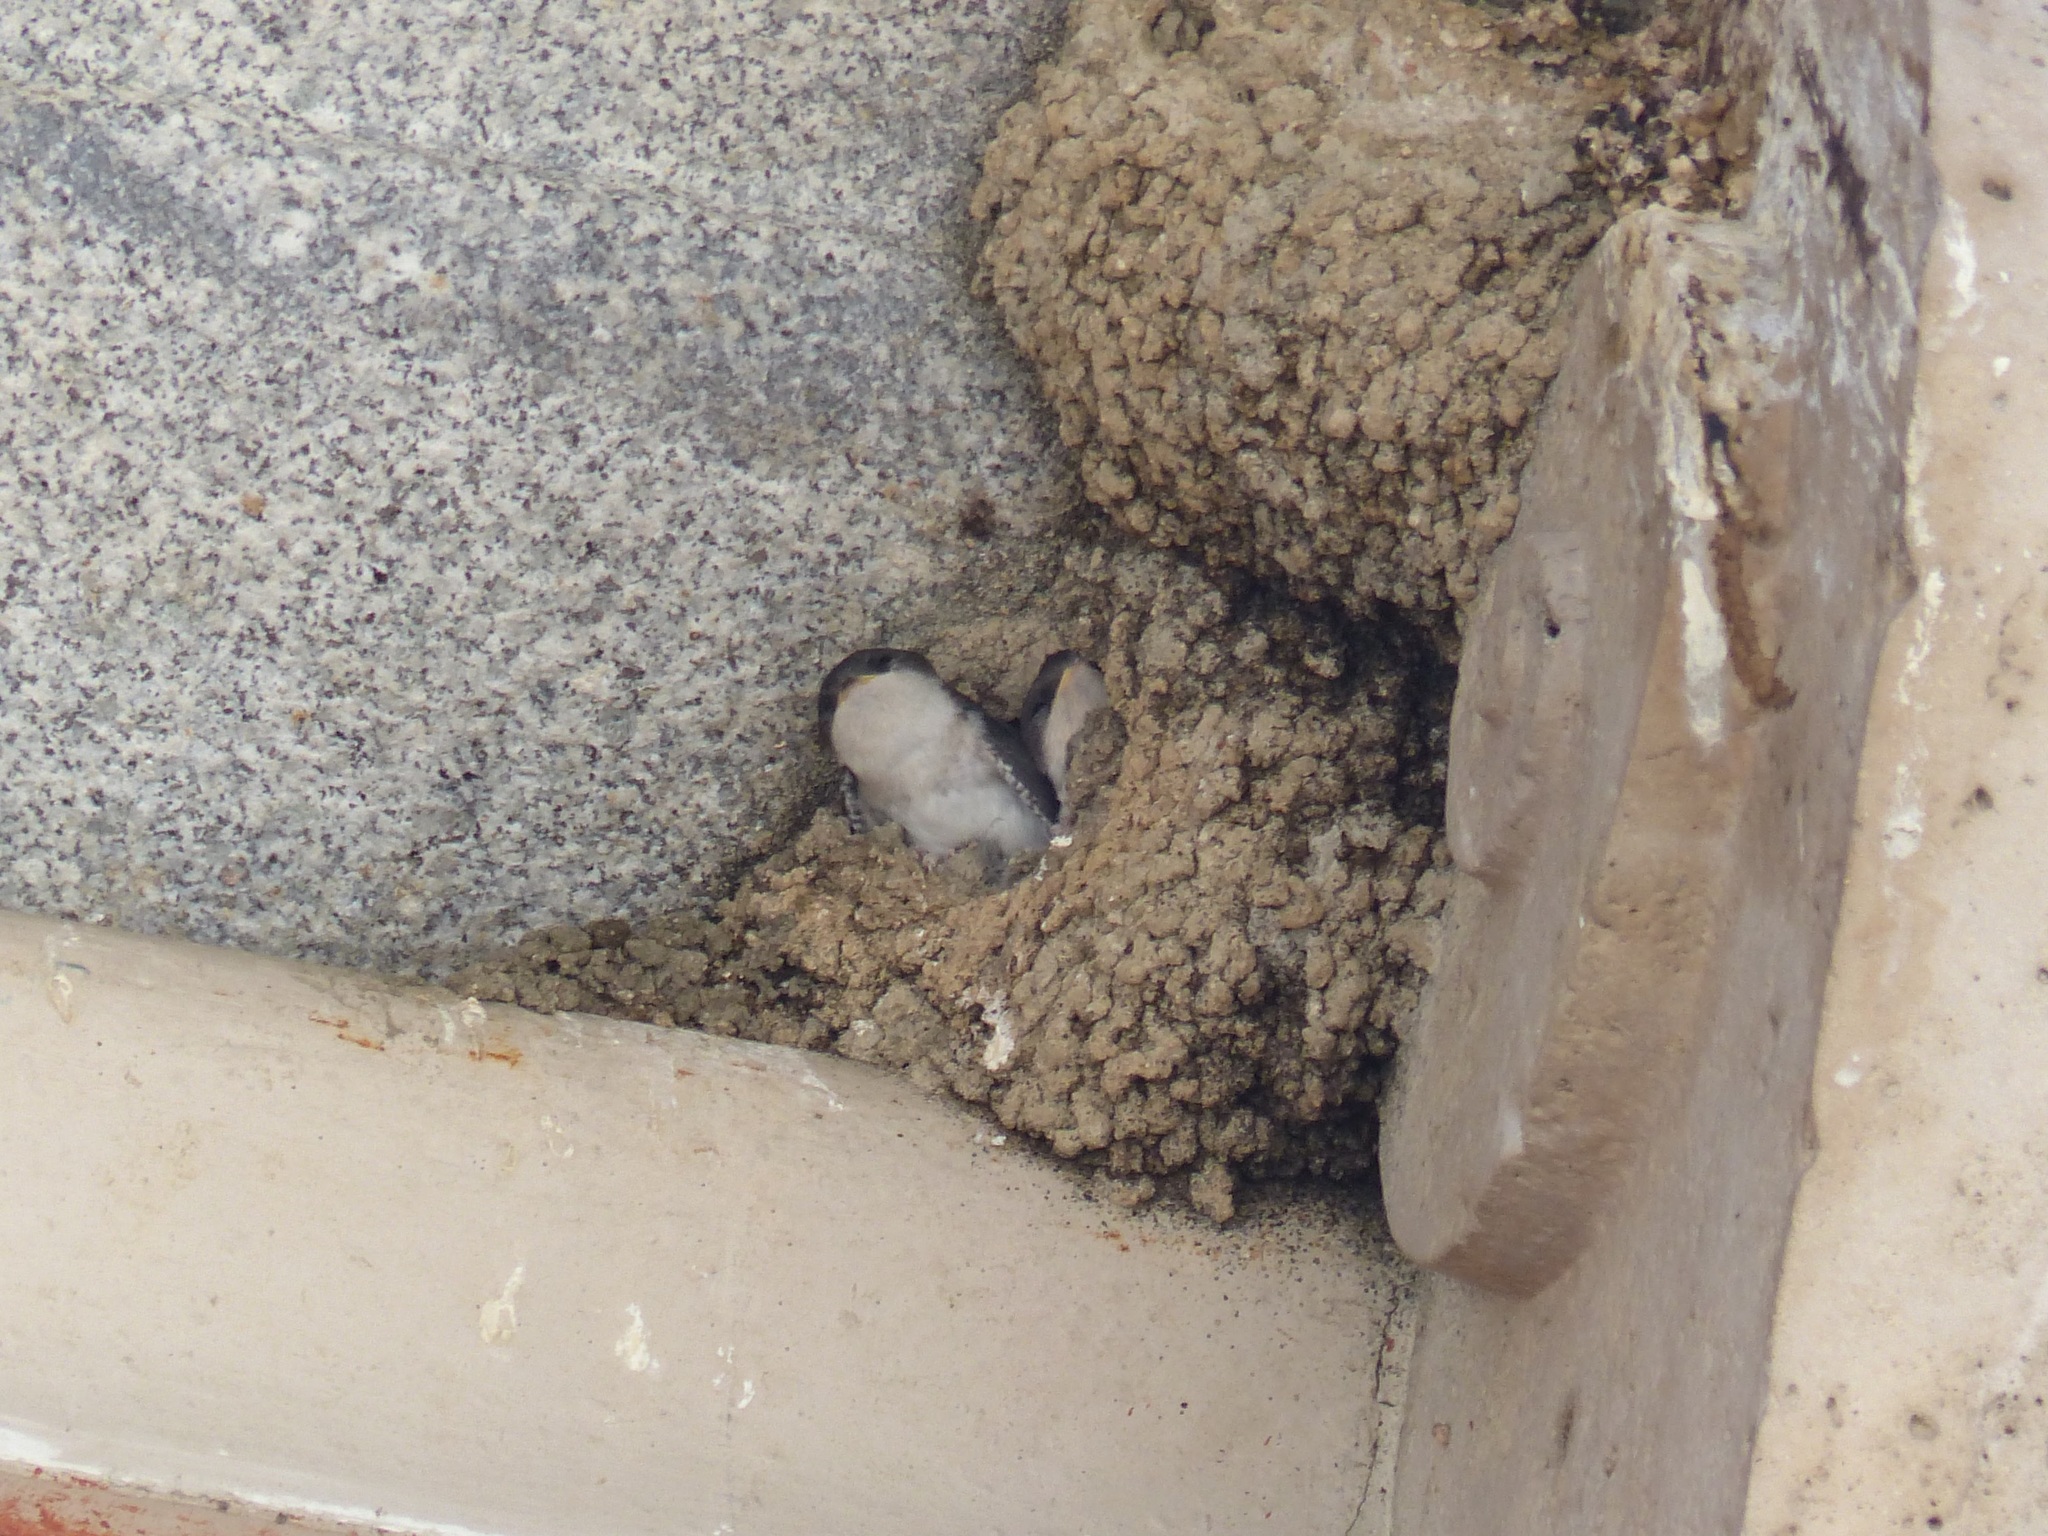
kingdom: Animalia
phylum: Chordata
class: Aves
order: Passeriformes
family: Hirundinidae
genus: Delichon
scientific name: Delichon urbicum
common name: Common house martin
